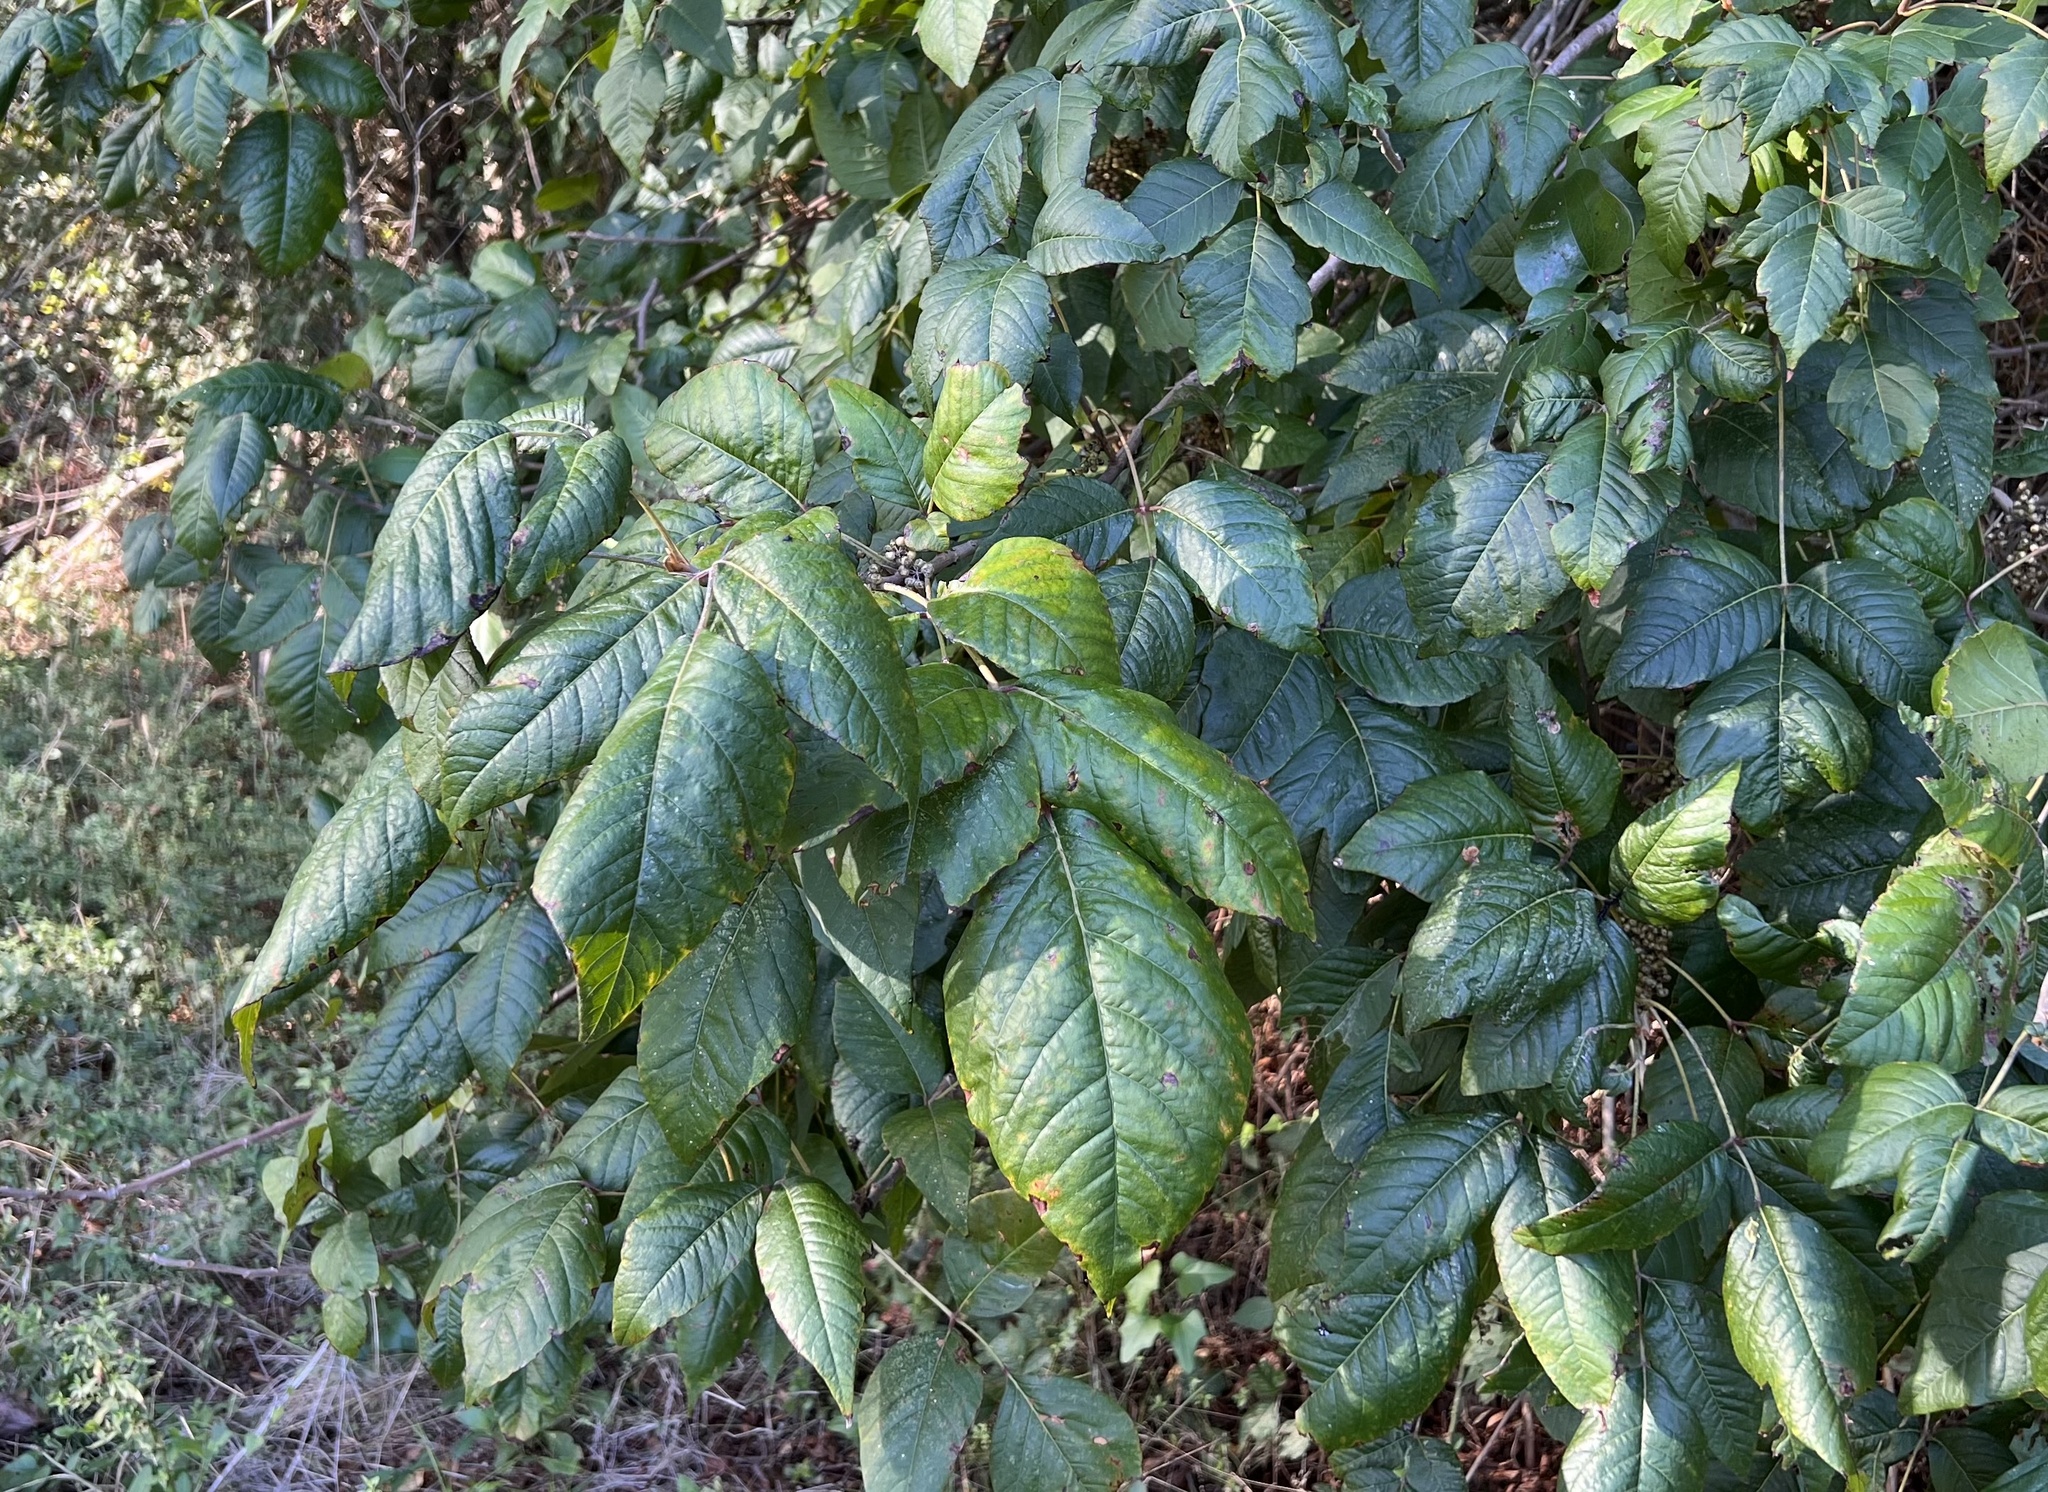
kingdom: Plantae
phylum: Tracheophyta
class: Magnoliopsida
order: Sapindales
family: Anacardiaceae
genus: Toxicodendron
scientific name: Toxicodendron radicans
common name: Poison ivy
